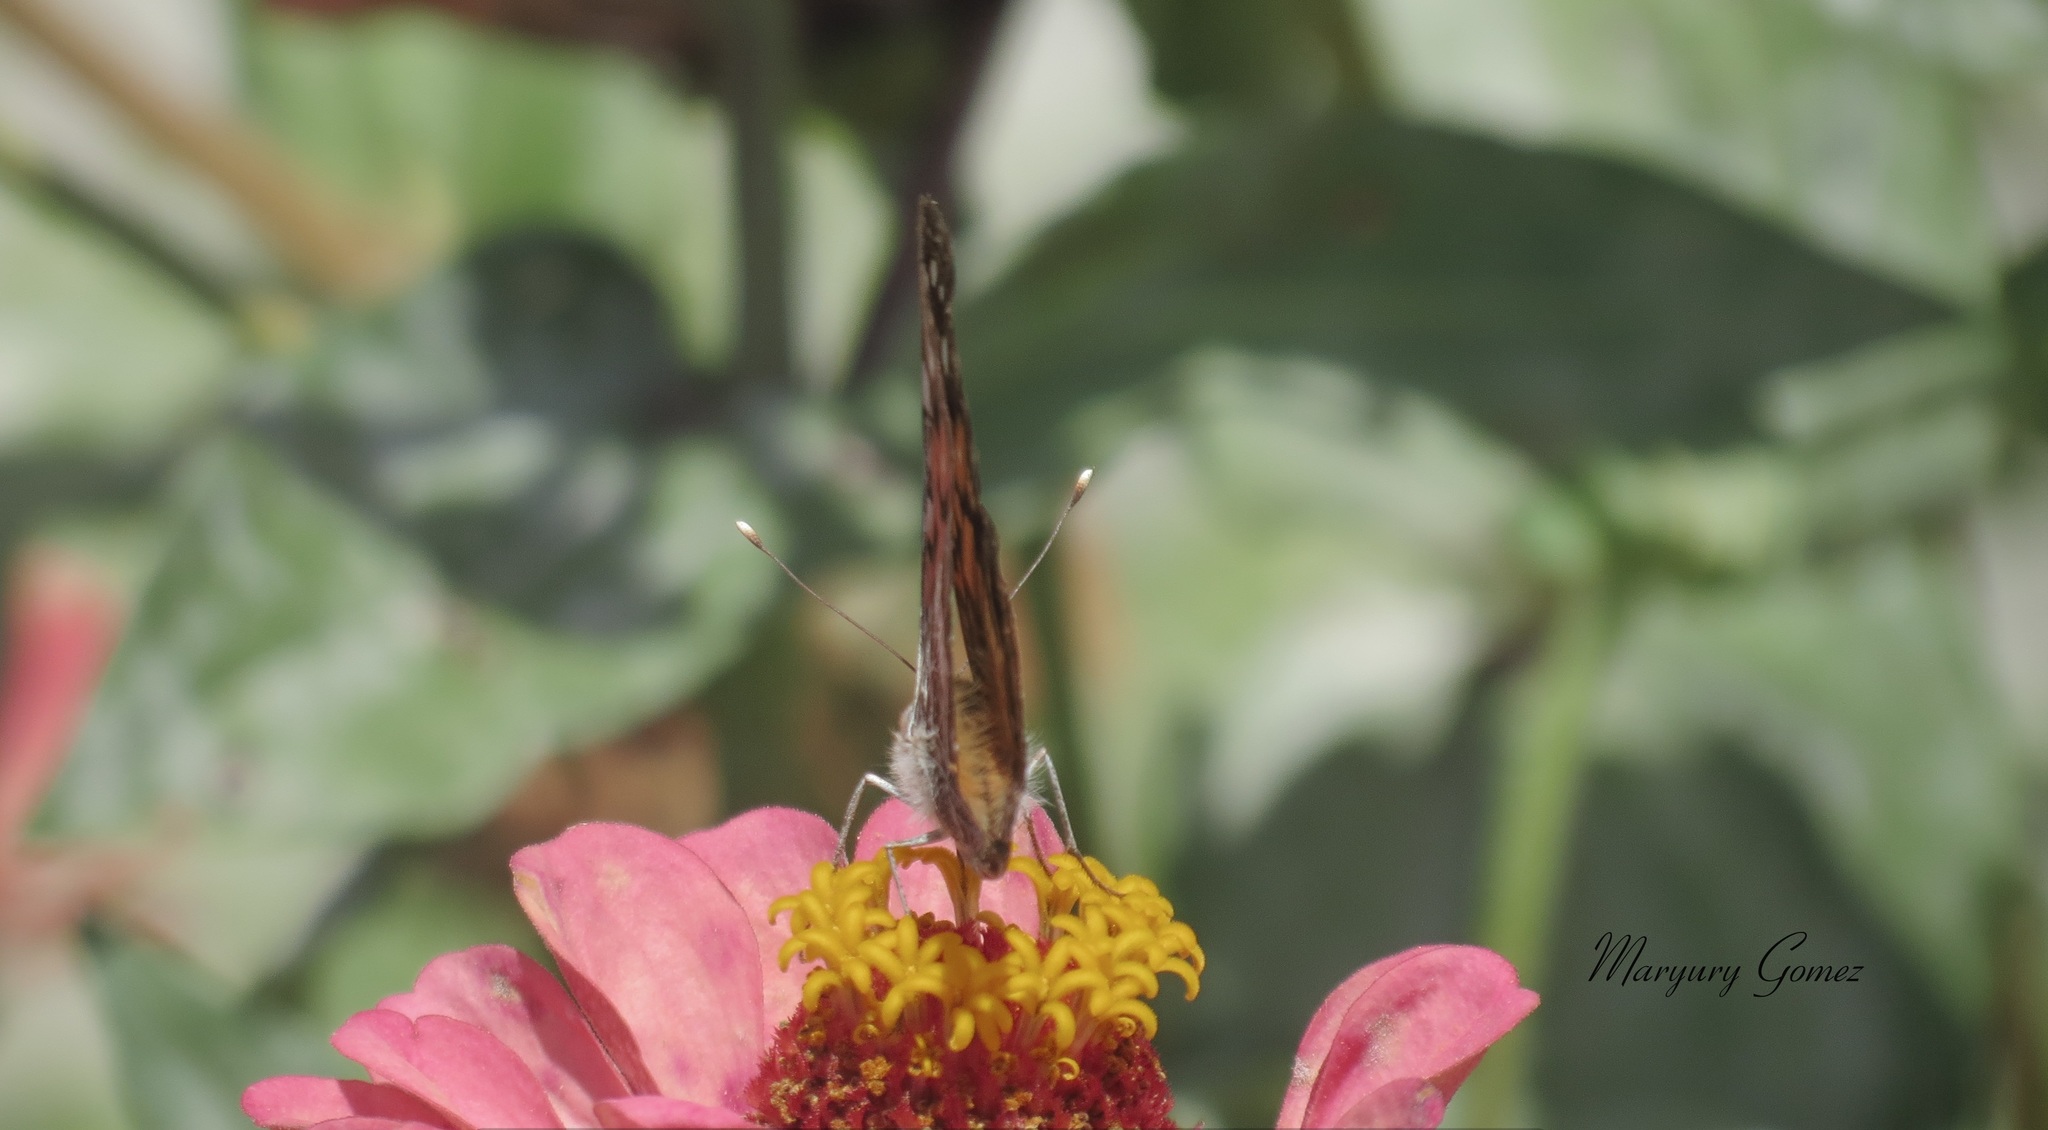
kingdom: Animalia
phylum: Arthropoda
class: Insecta
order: Lepidoptera
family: Nymphalidae
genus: Vanessa
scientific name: Vanessa virginiensis
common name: American lady
